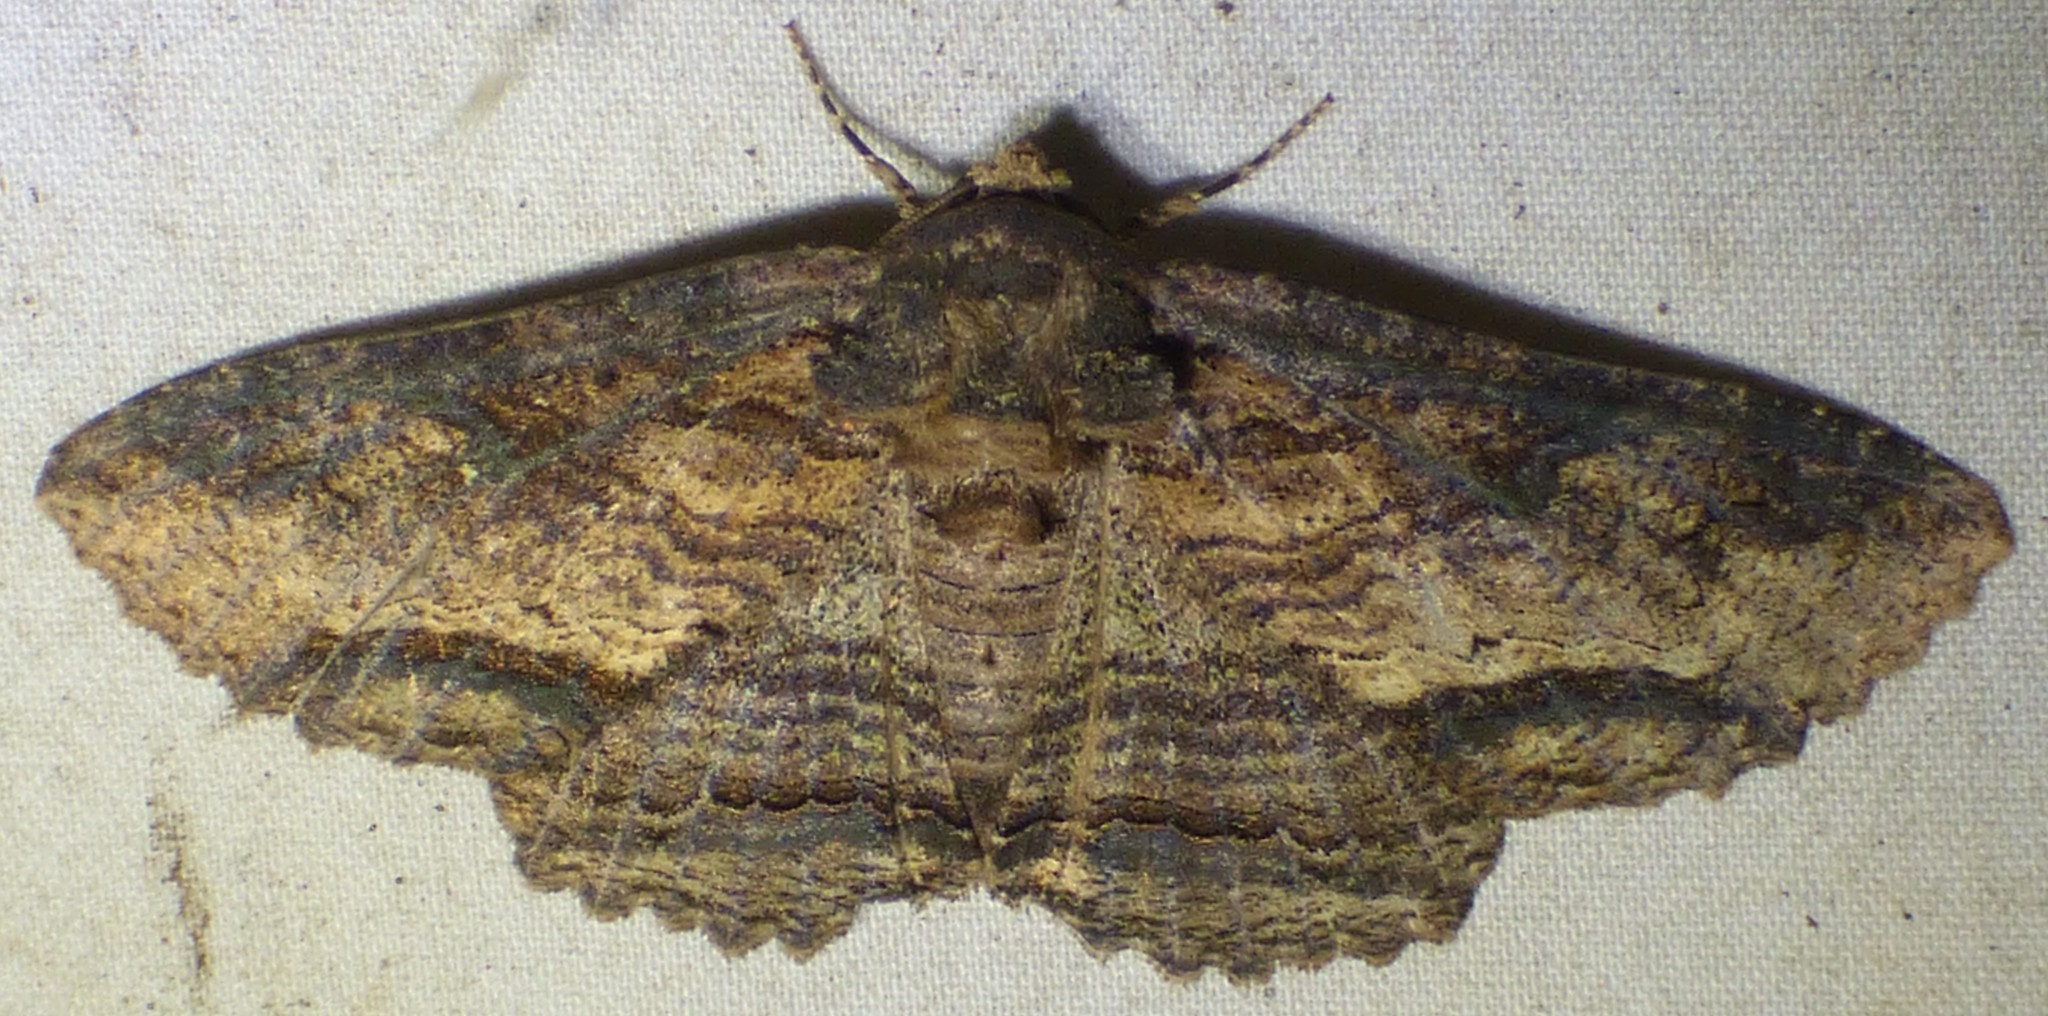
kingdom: Animalia
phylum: Arthropoda
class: Insecta
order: Lepidoptera
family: Erebidae
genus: Zale
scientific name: Zale lunata
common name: Lunate zale moth
